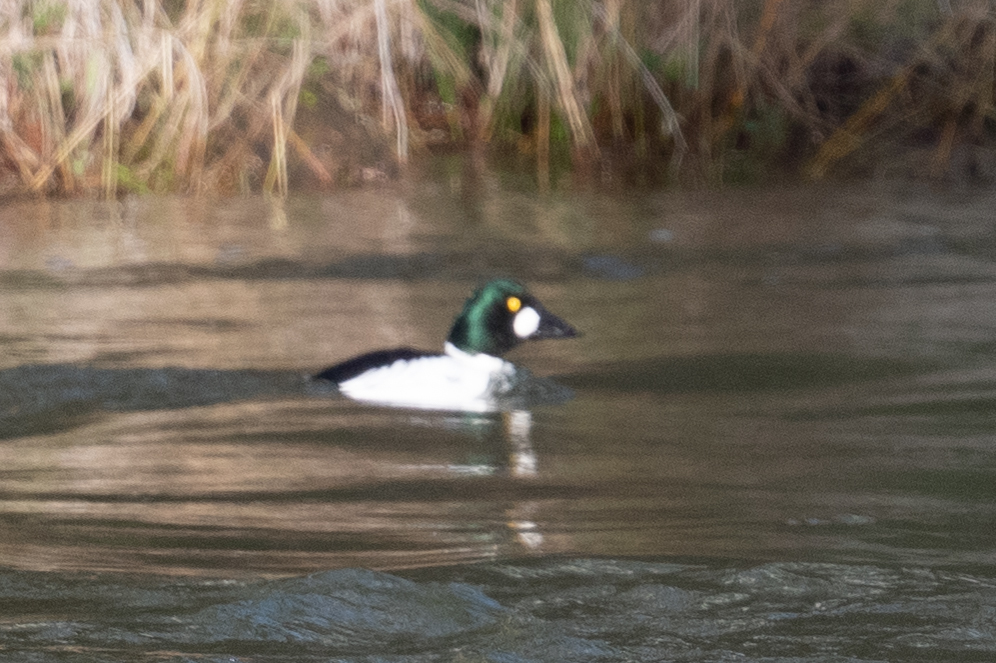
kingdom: Animalia
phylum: Chordata
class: Aves
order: Anseriformes
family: Anatidae
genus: Bucephala
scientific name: Bucephala clangula
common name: Common goldeneye
